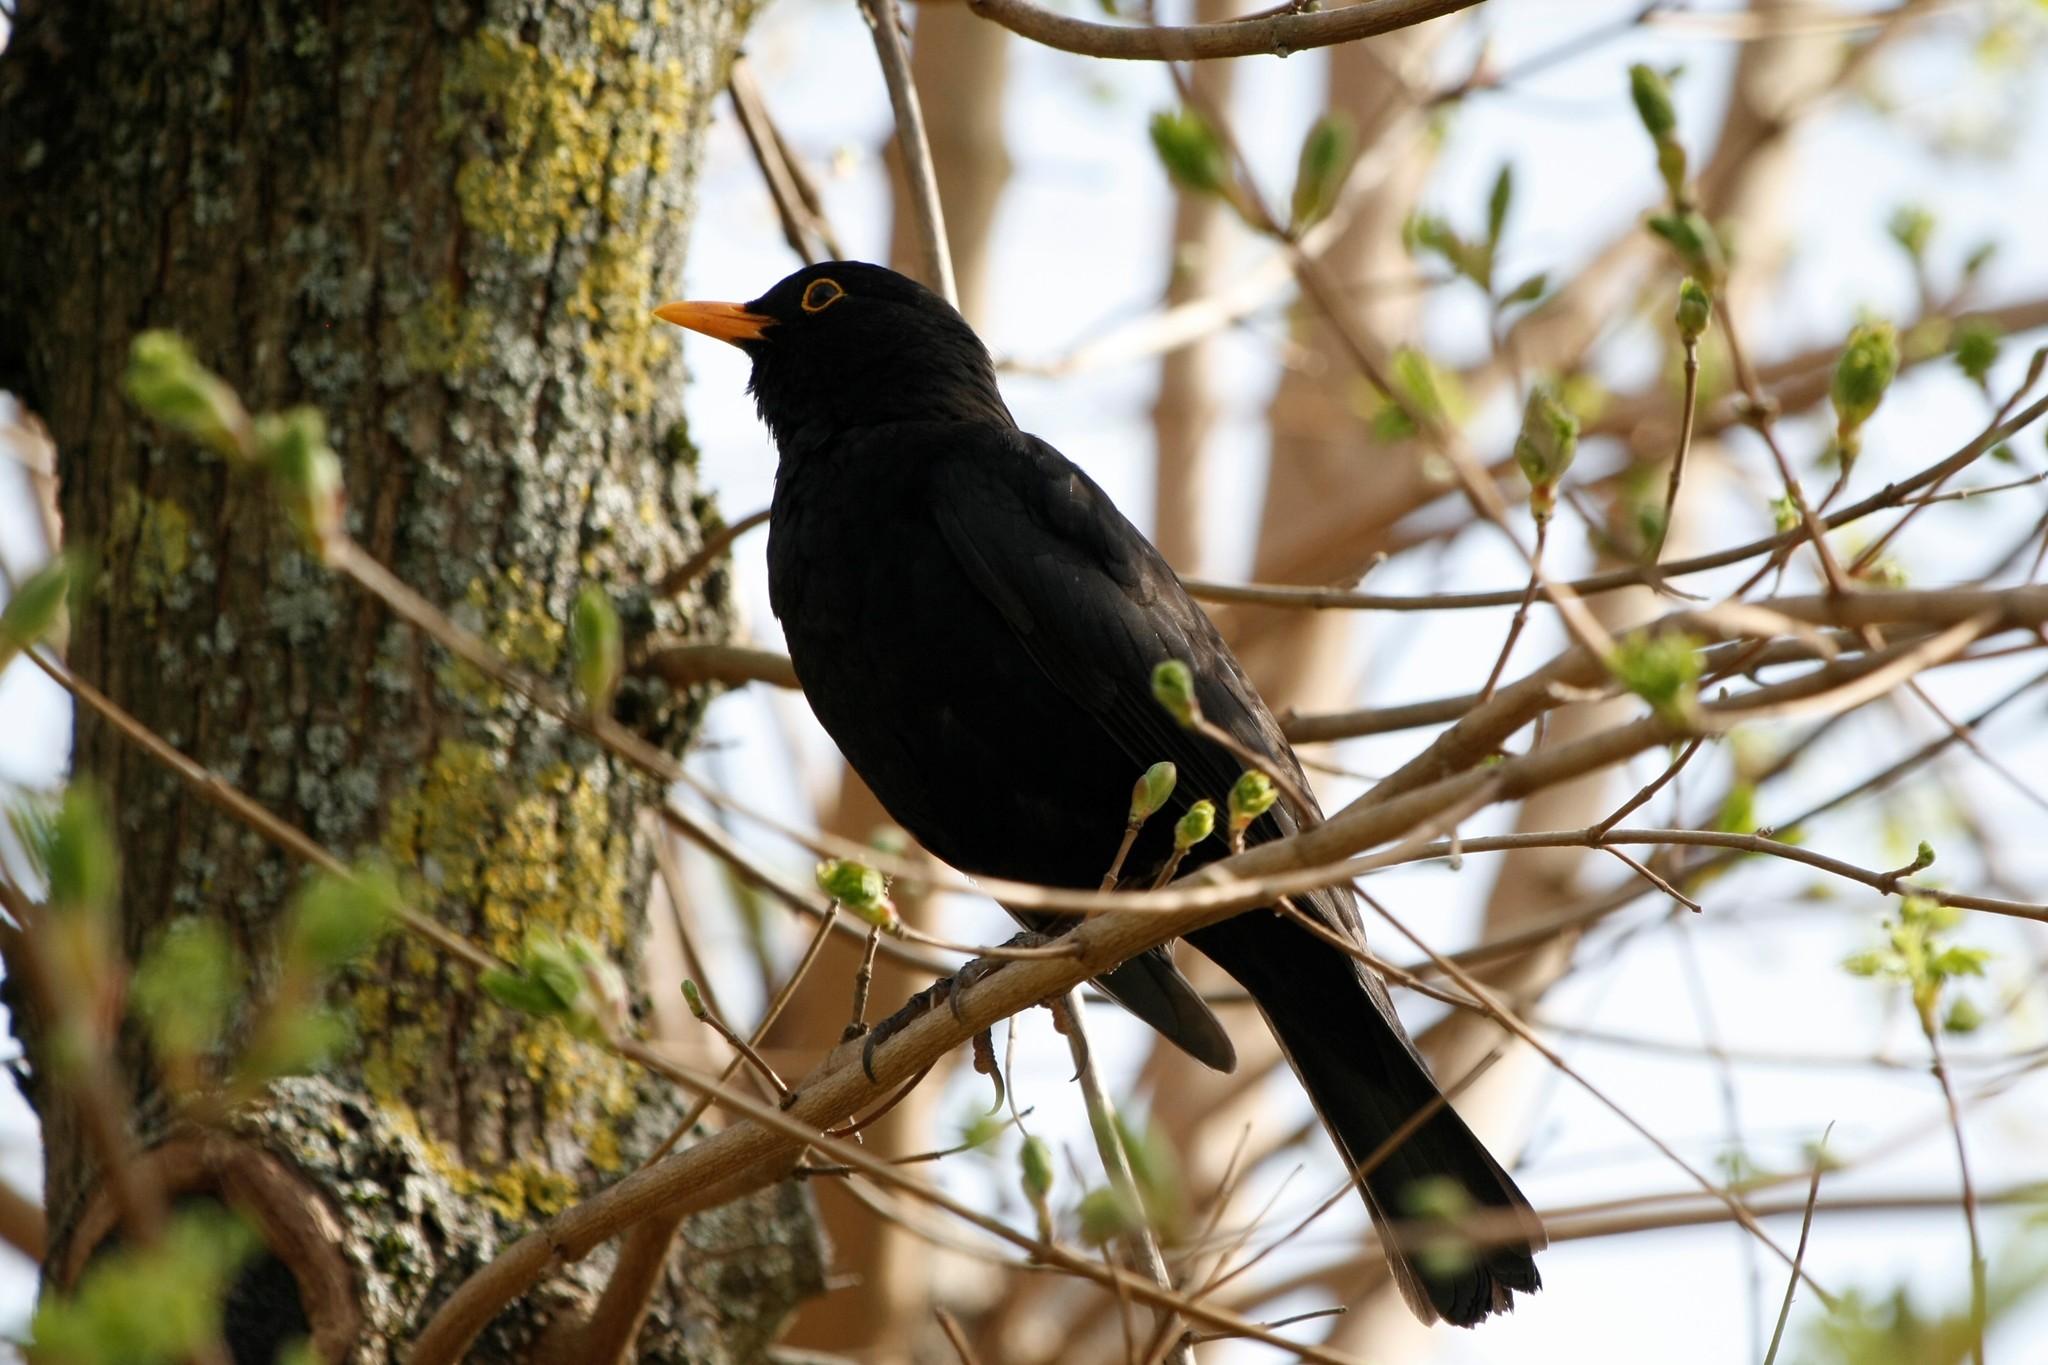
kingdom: Animalia
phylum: Chordata
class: Aves
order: Passeriformes
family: Turdidae
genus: Turdus
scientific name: Turdus merula
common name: Common blackbird
